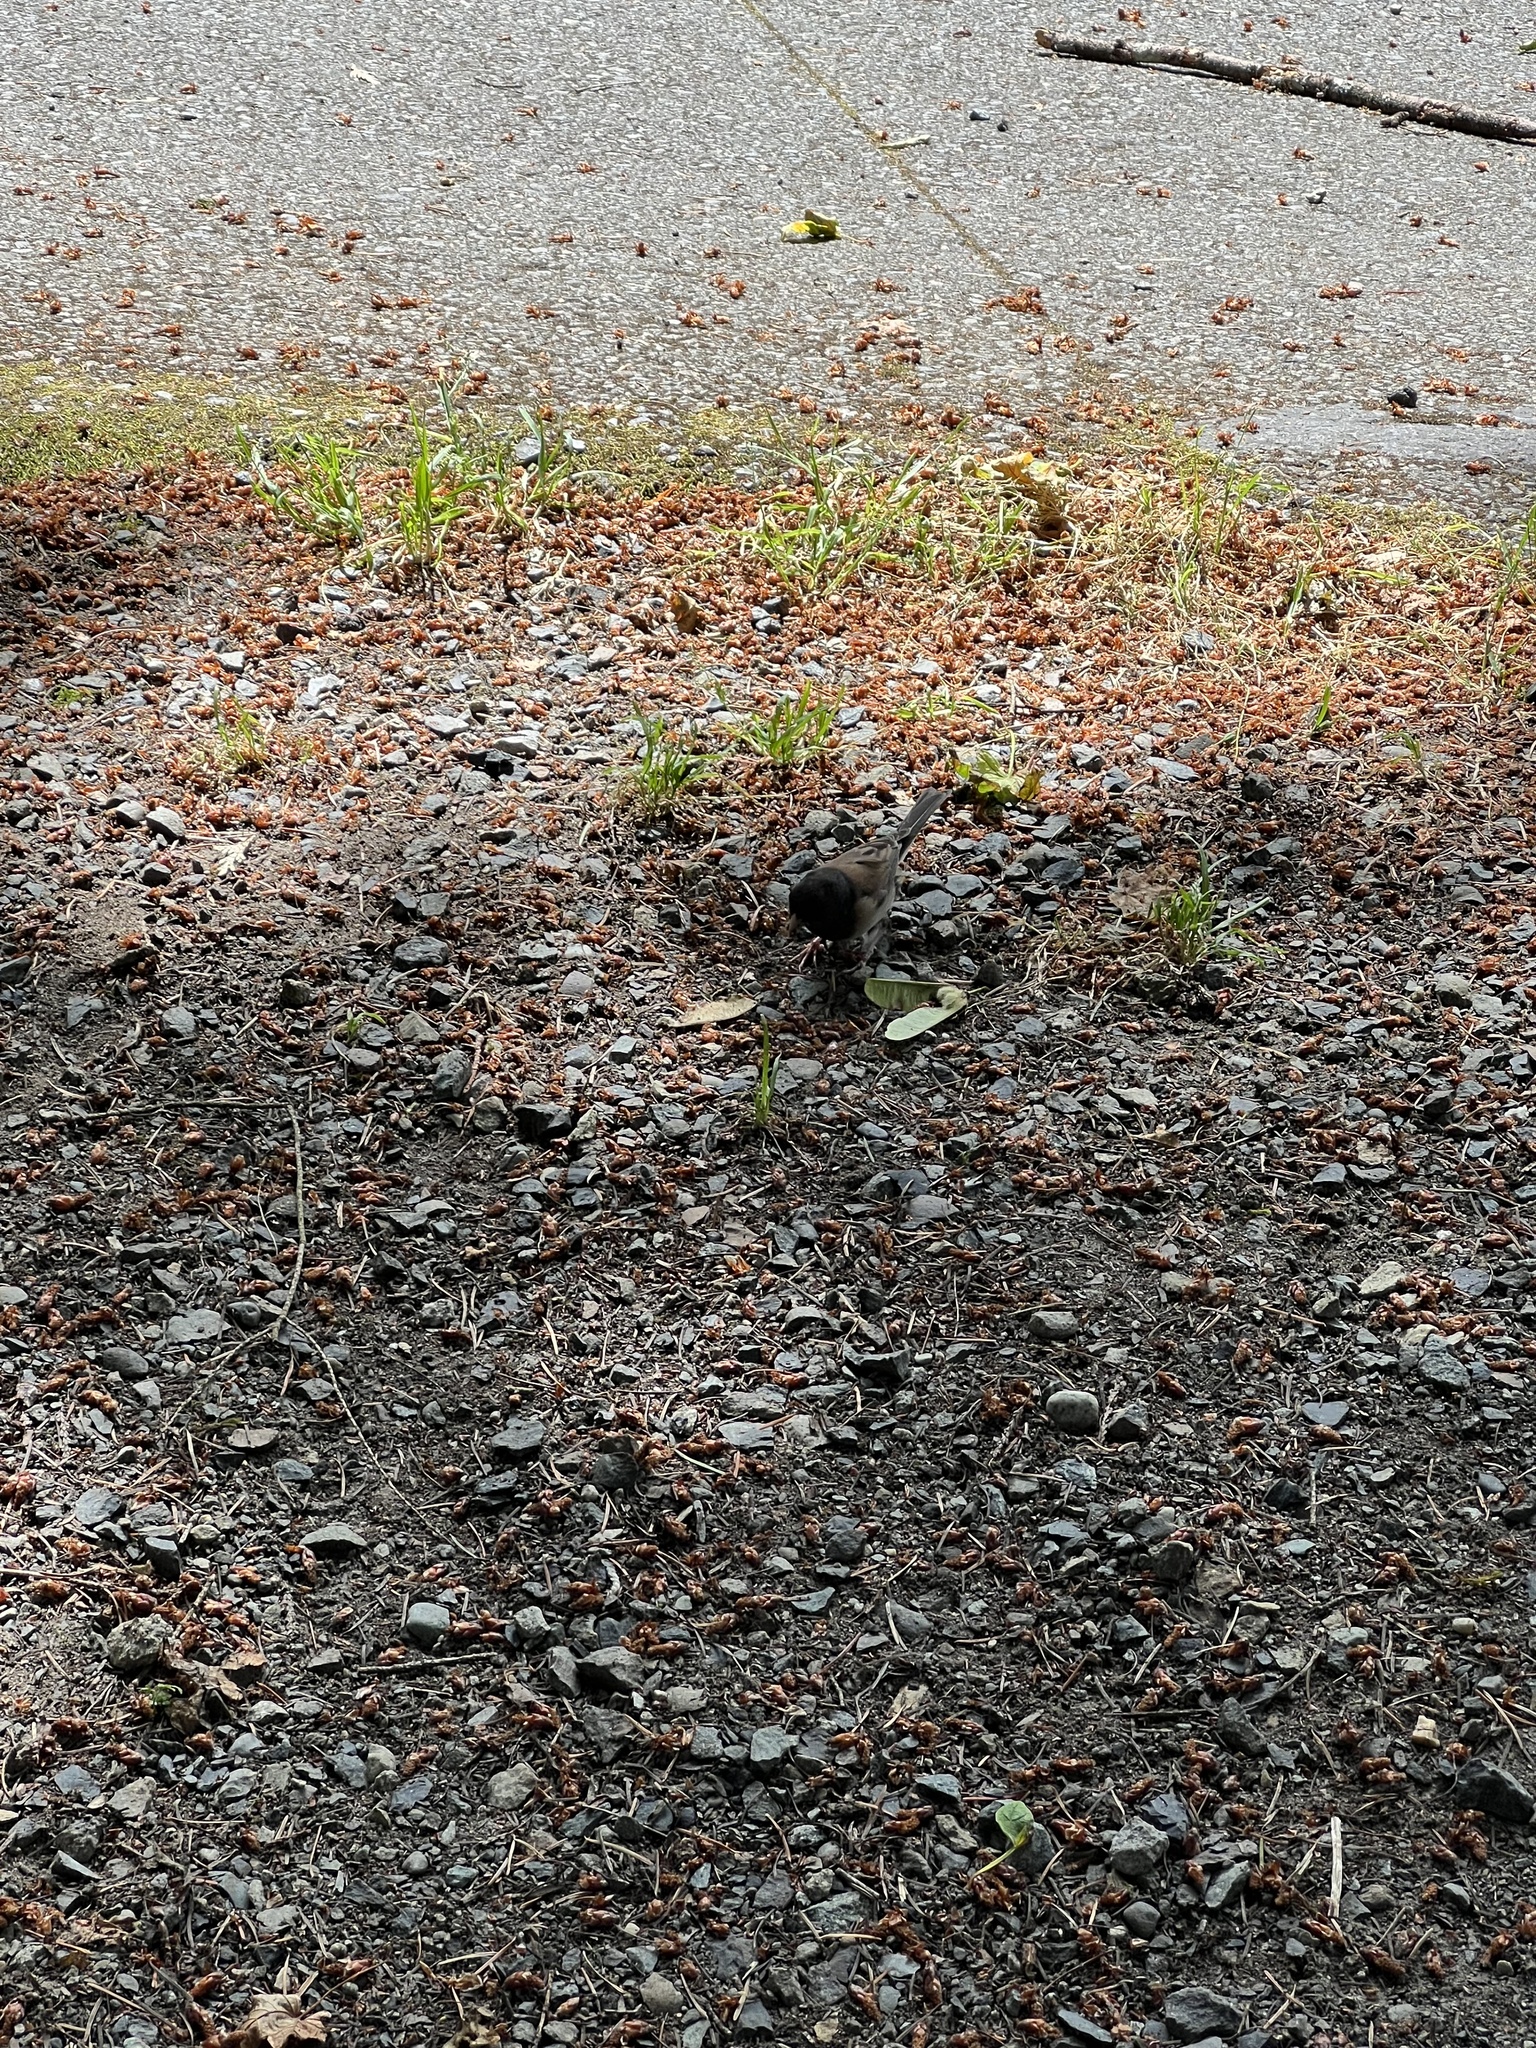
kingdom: Animalia
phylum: Chordata
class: Aves
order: Passeriformes
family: Passerellidae
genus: Junco
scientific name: Junco hyemalis
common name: Dark-eyed junco
